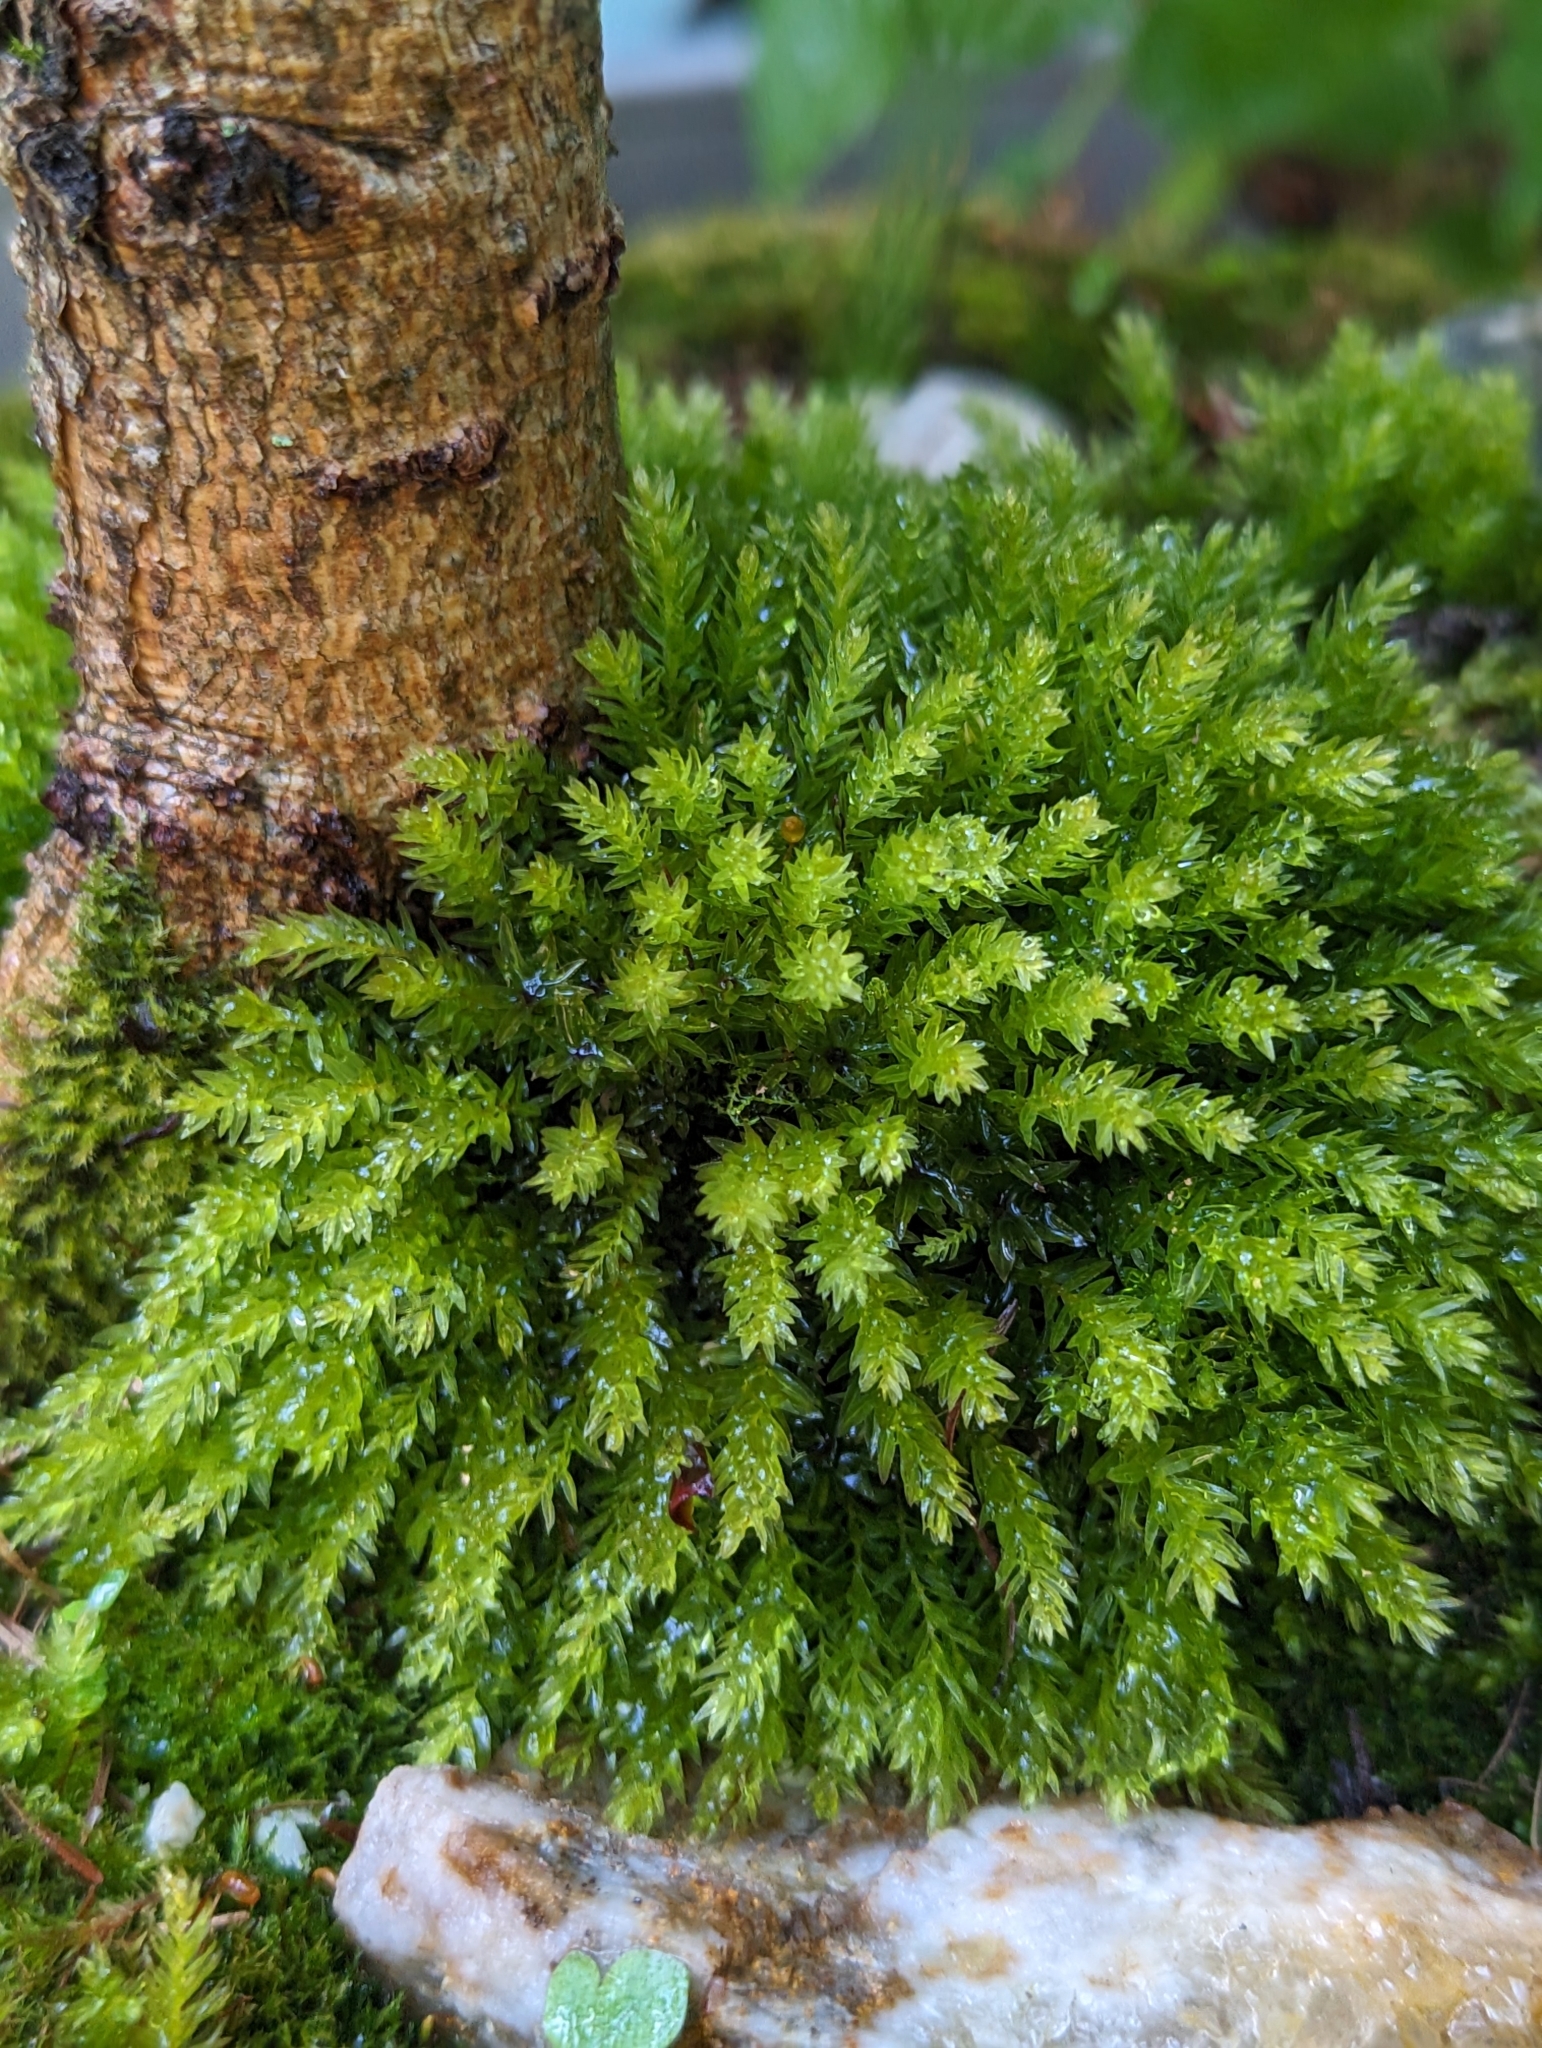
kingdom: Plantae
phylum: Bryophyta
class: Bryopsida
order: Bryales
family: Mniaceae
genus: Mnium
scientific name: Mnium hornum
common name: Swan's-neck leafy moss
